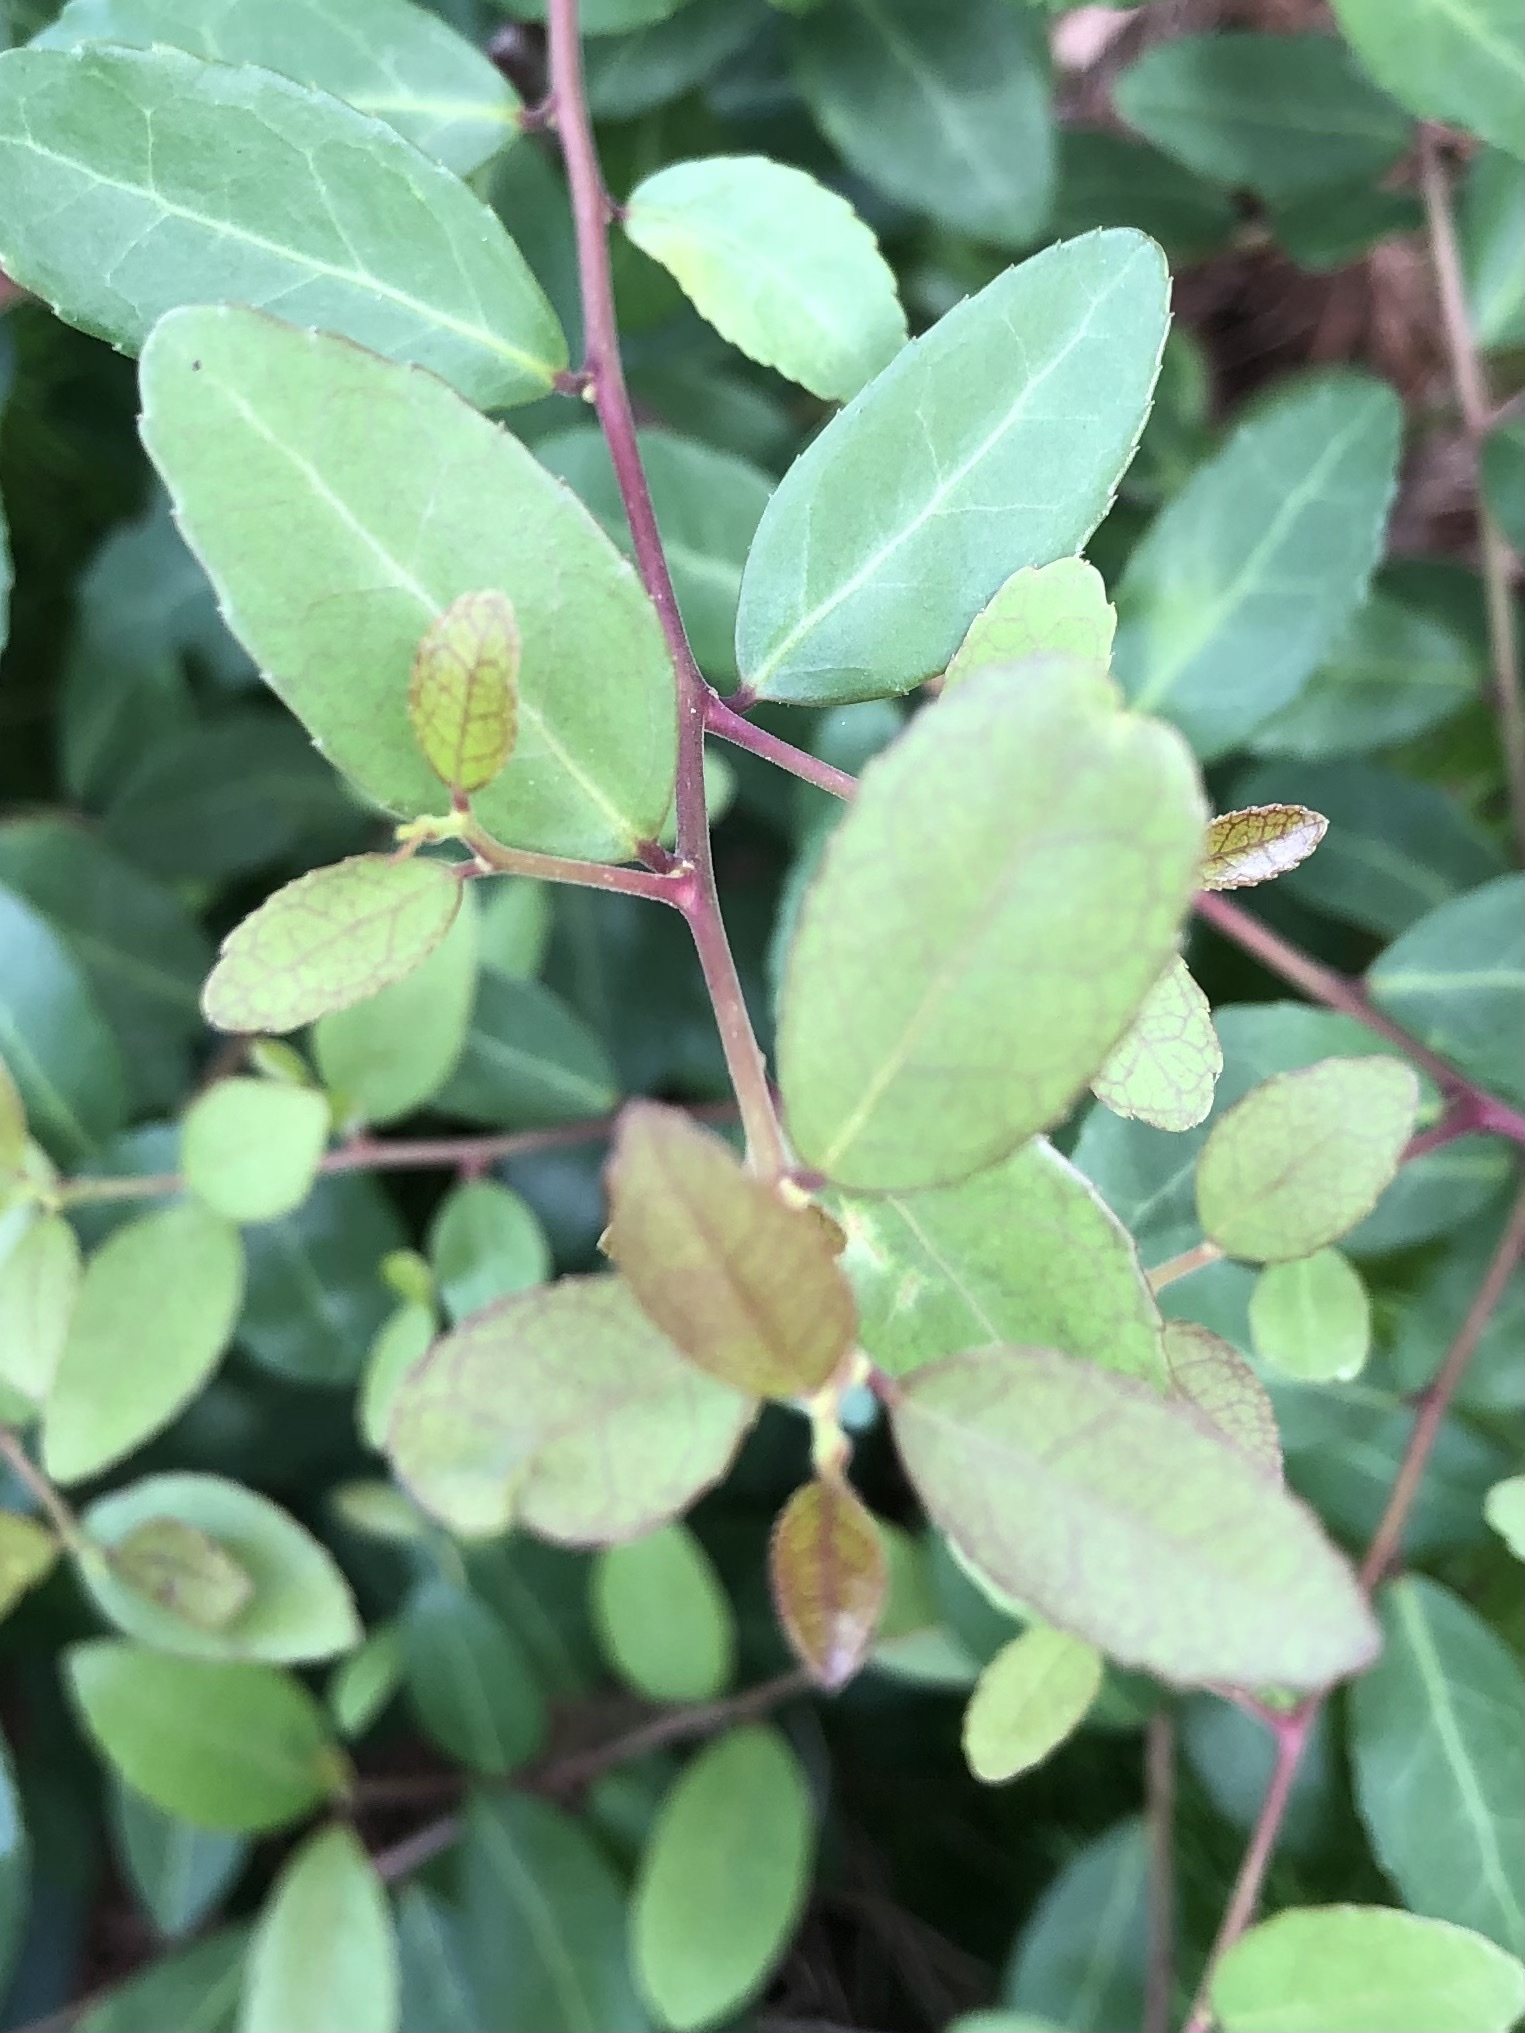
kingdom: Plantae
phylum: Tracheophyta
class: Magnoliopsida
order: Aquifoliales
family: Aquifoliaceae
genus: Ilex
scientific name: Ilex vomitoria
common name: Yaupon holly
